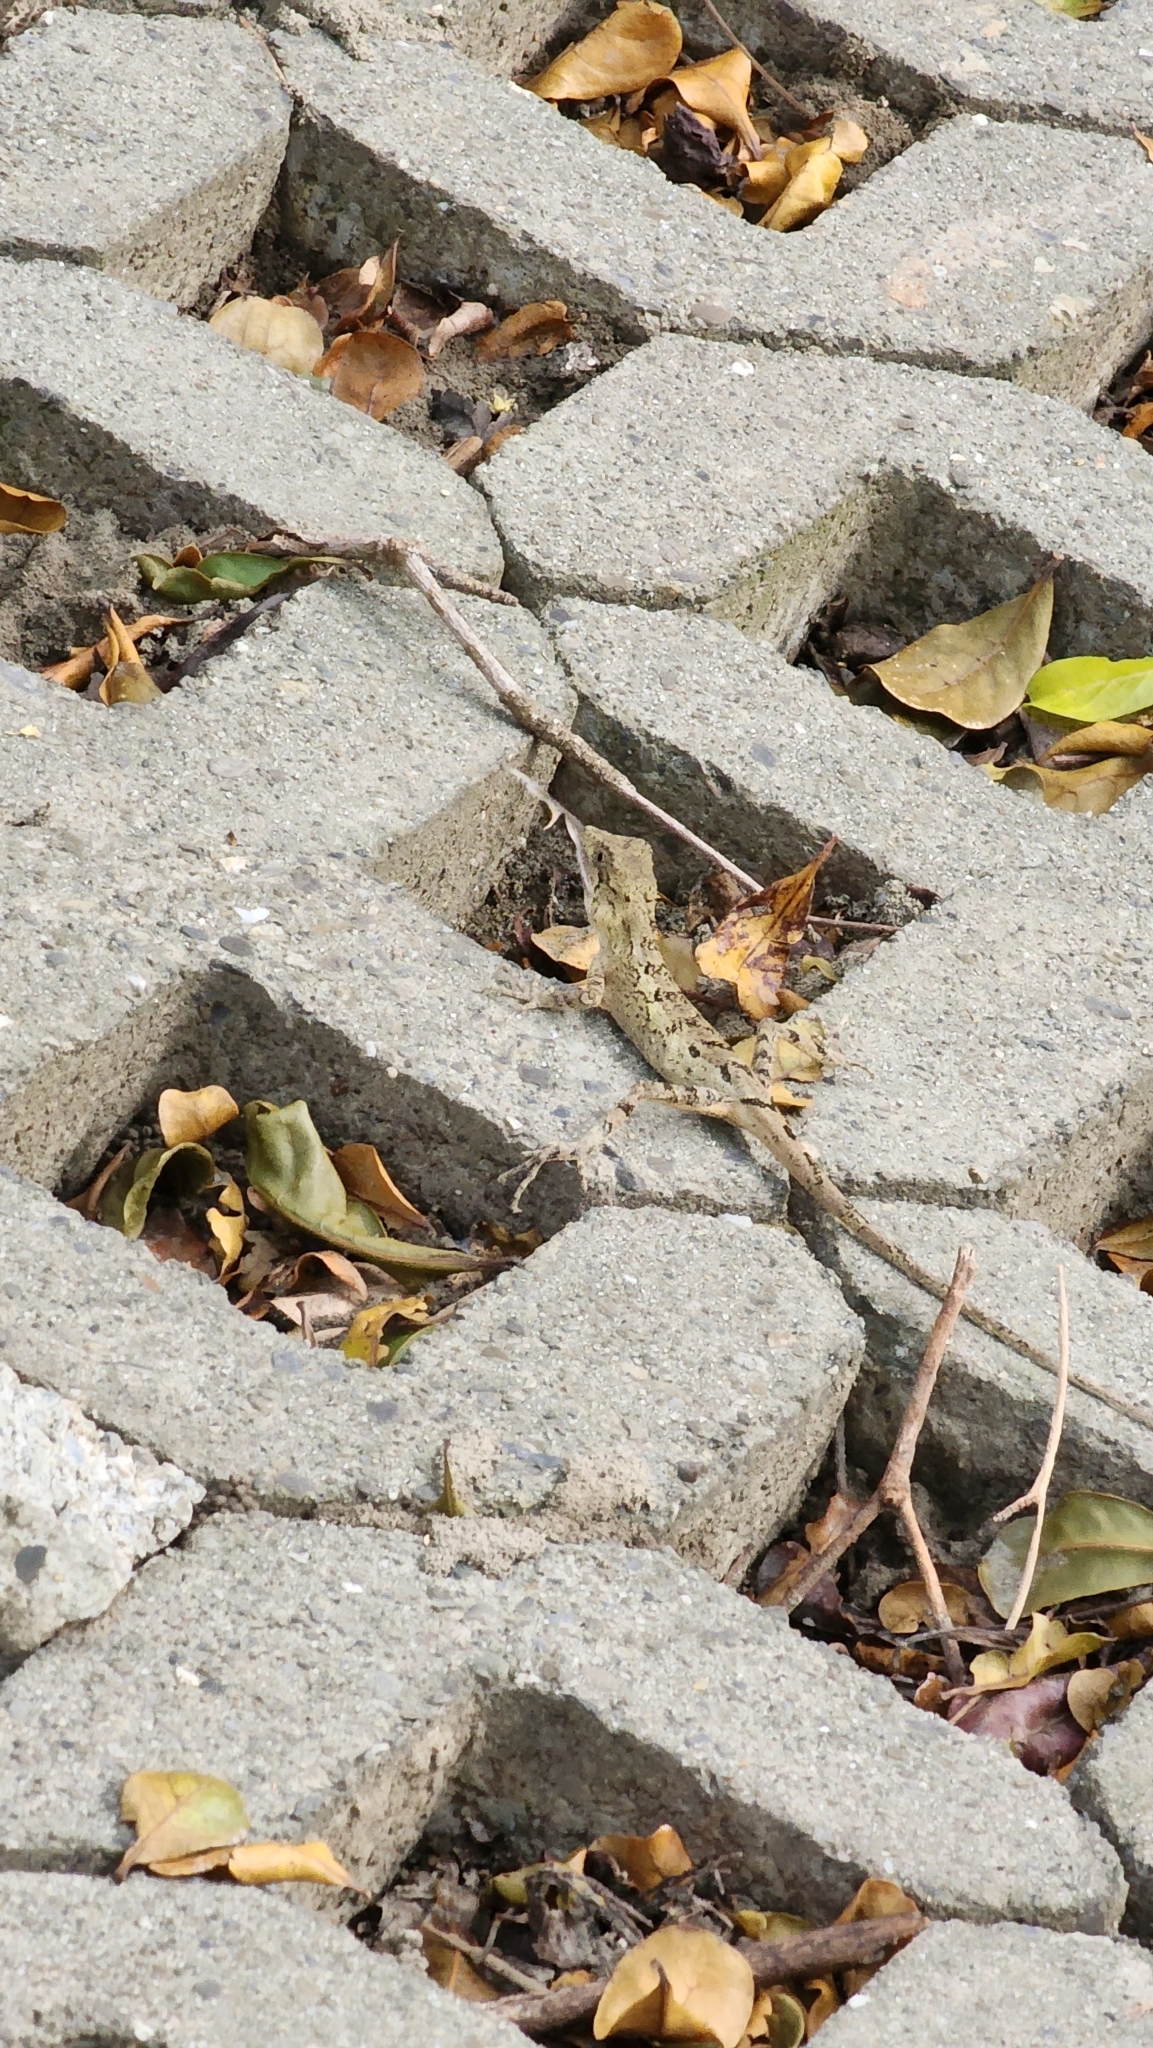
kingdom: Animalia
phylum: Chordata
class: Squamata
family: Agamidae
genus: Diploderma
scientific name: Diploderma swinhonis
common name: Taiwan japalure
